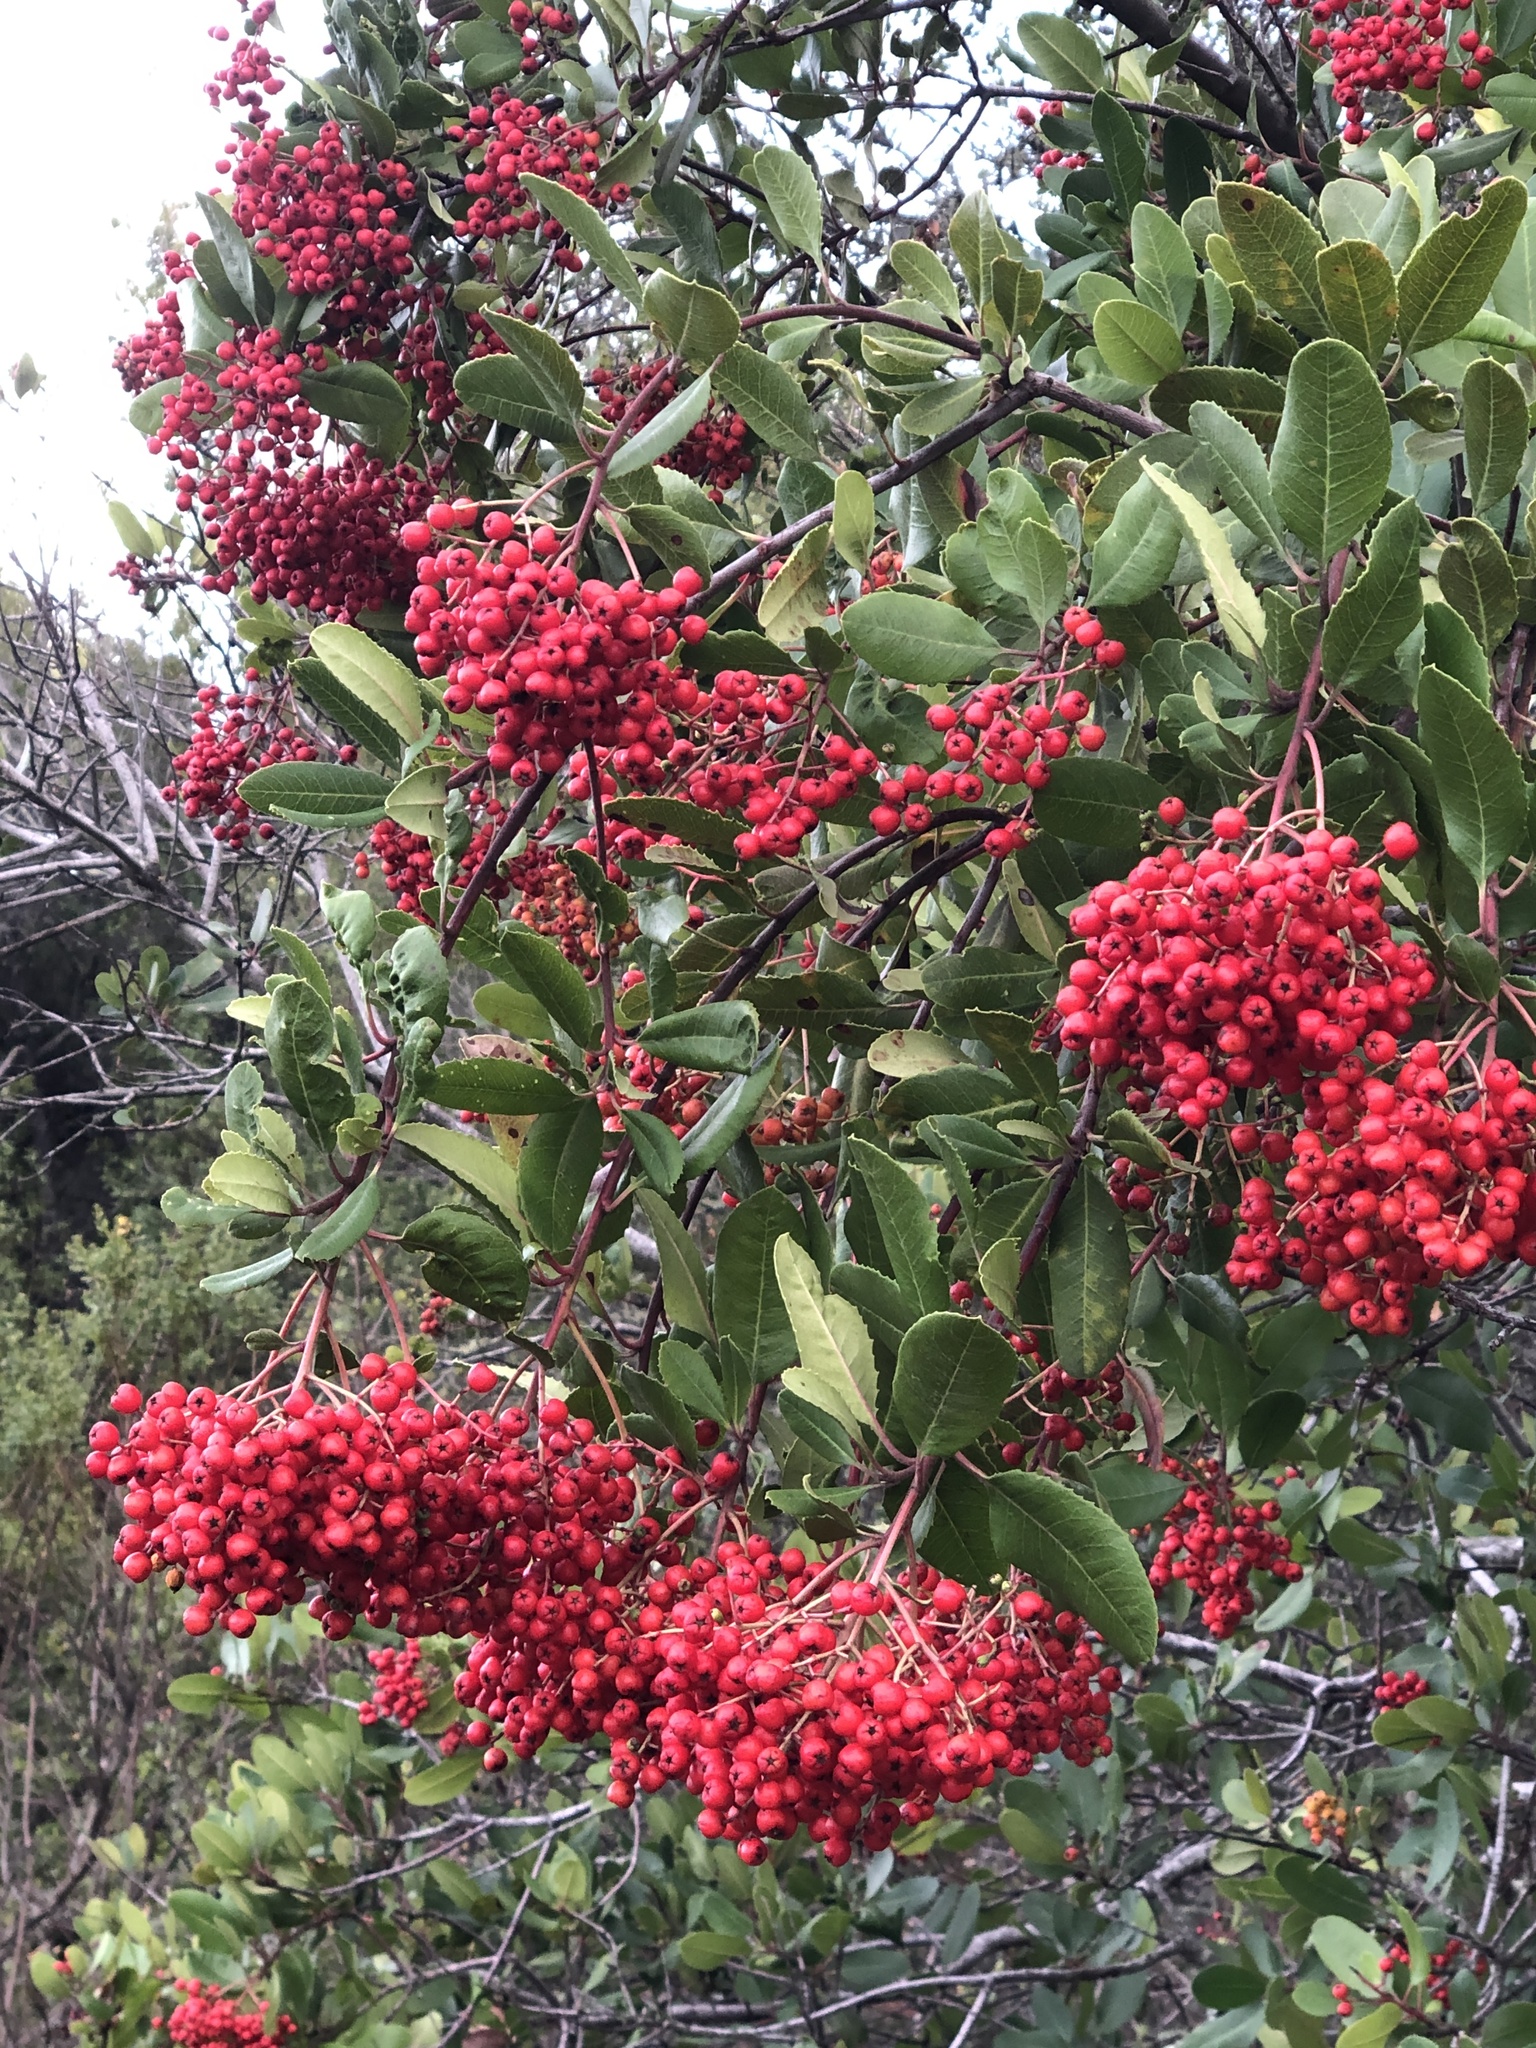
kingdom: Plantae
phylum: Tracheophyta
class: Magnoliopsida
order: Rosales
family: Rosaceae
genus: Heteromeles
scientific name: Heteromeles arbutifolia
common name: California-holly
